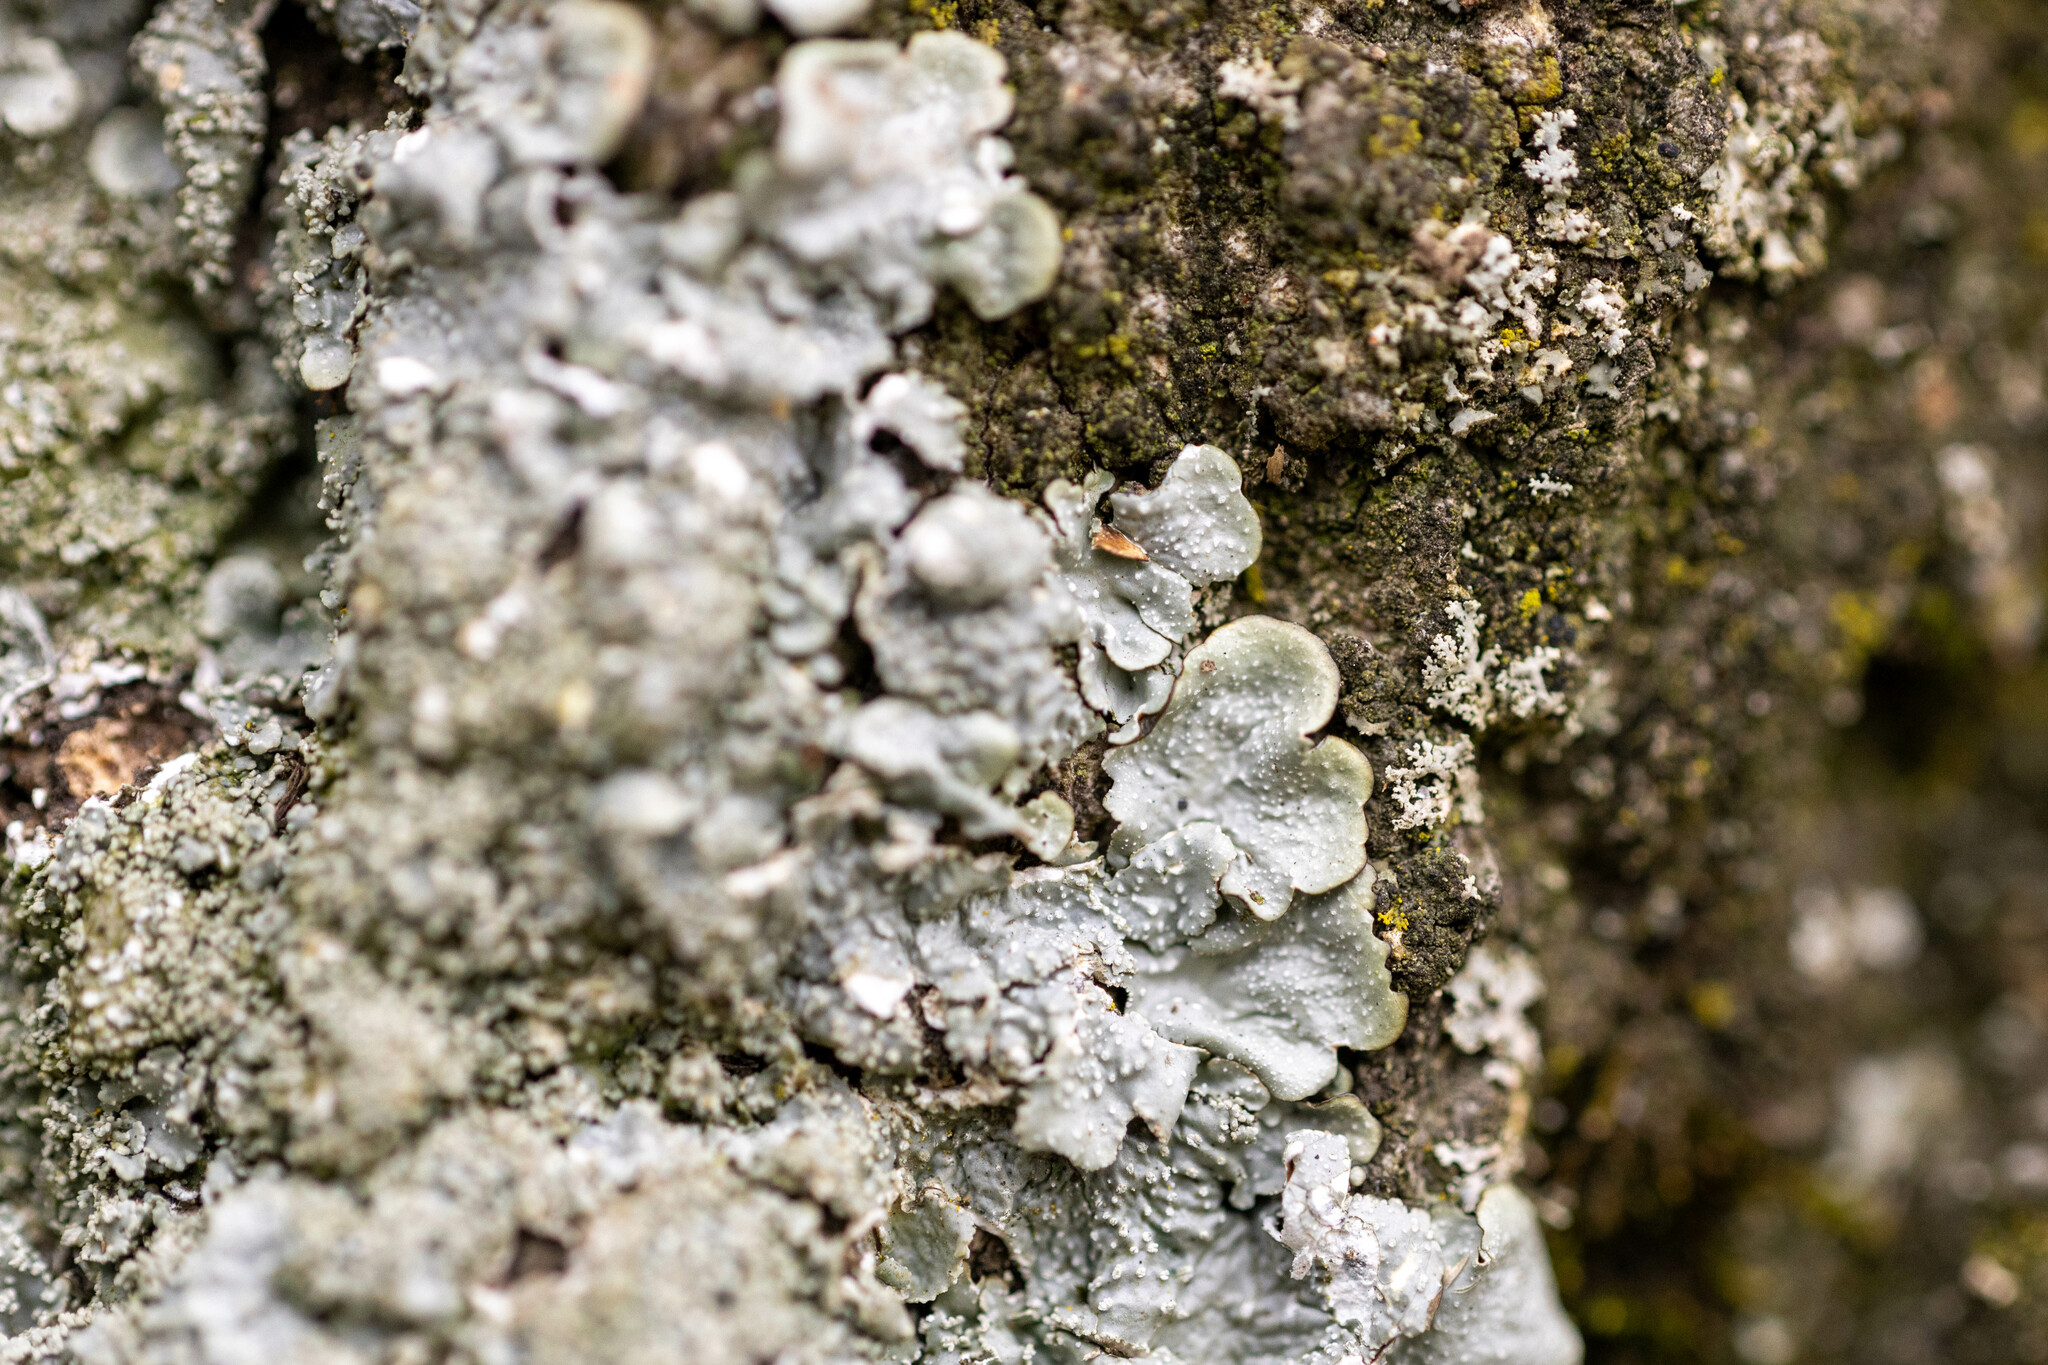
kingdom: Fungi
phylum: Ascomycota
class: Lecanoromycetes
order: Lecanorales
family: Parmeliaceae
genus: Punctelia
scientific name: Punctelia rudecta
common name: Rough speckled shield lichen
